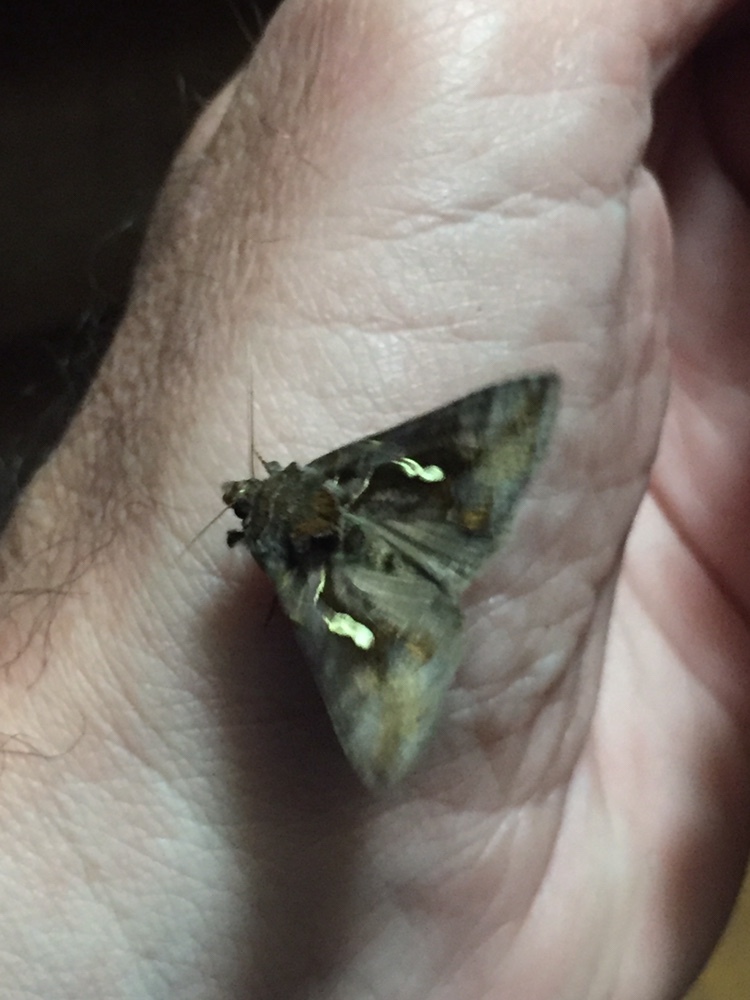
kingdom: Animalia
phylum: Arthropoda
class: Insecta
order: Lepidoptera
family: Noctuidae
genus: Chrysodeixis
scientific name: Chrysodeixis eriosoma
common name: Green garden looper
